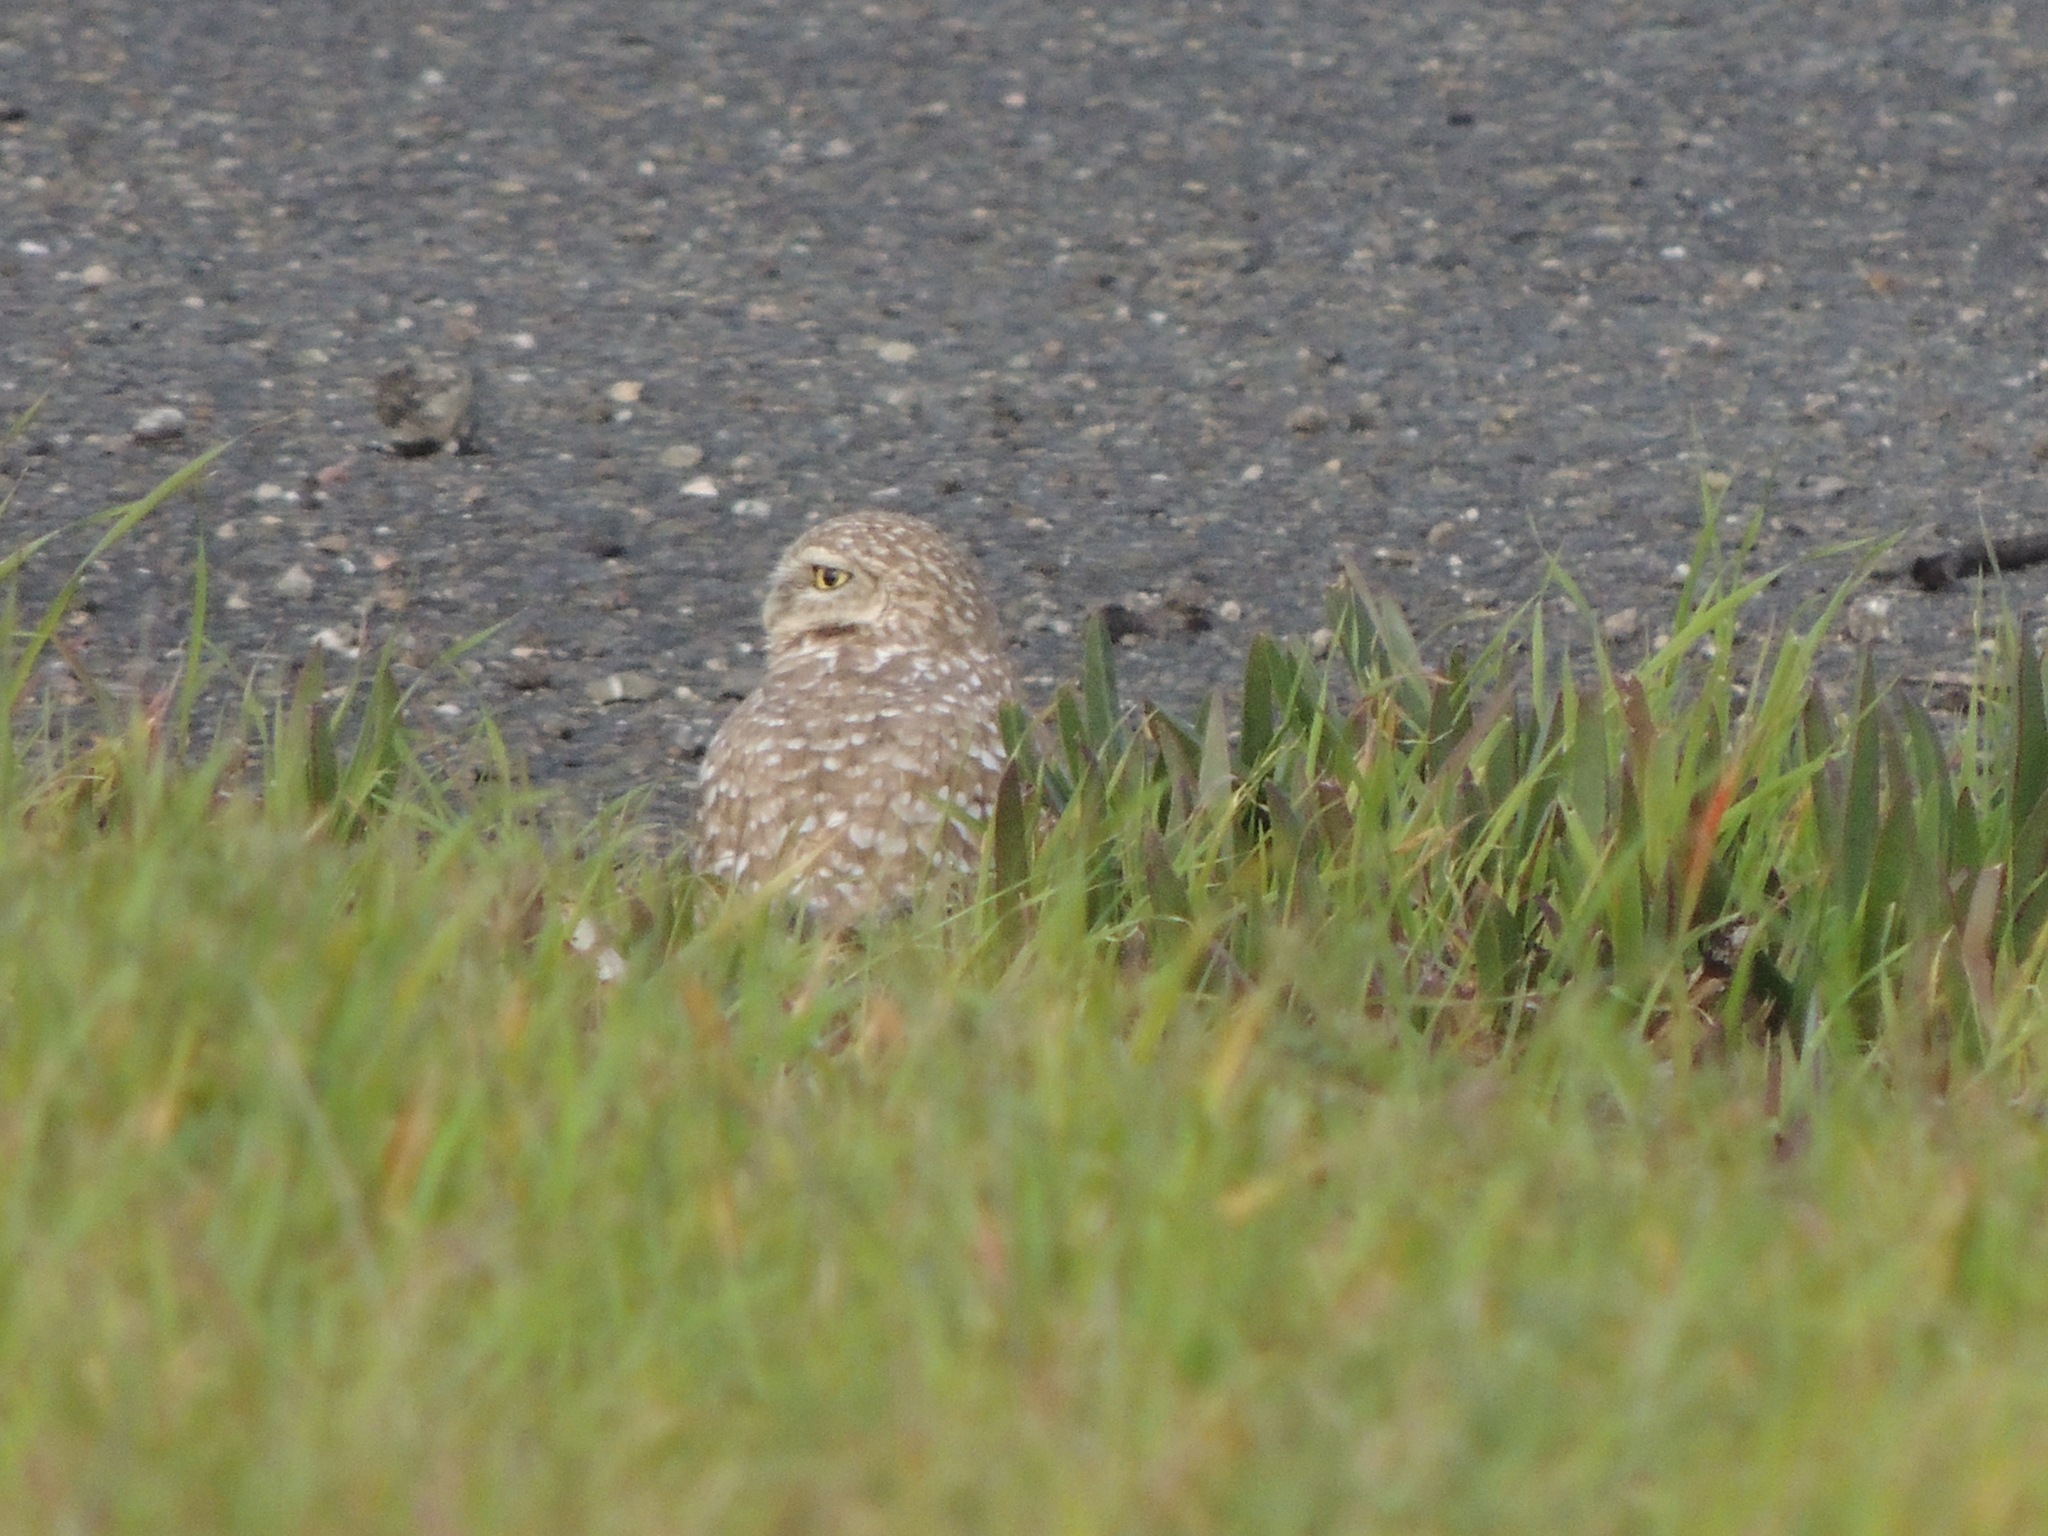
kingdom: Animalia
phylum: Chordata
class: Aves
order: Strigiformes
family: Strigidae
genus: Athene
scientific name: Athene cunicularia
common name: Burrowing owl
